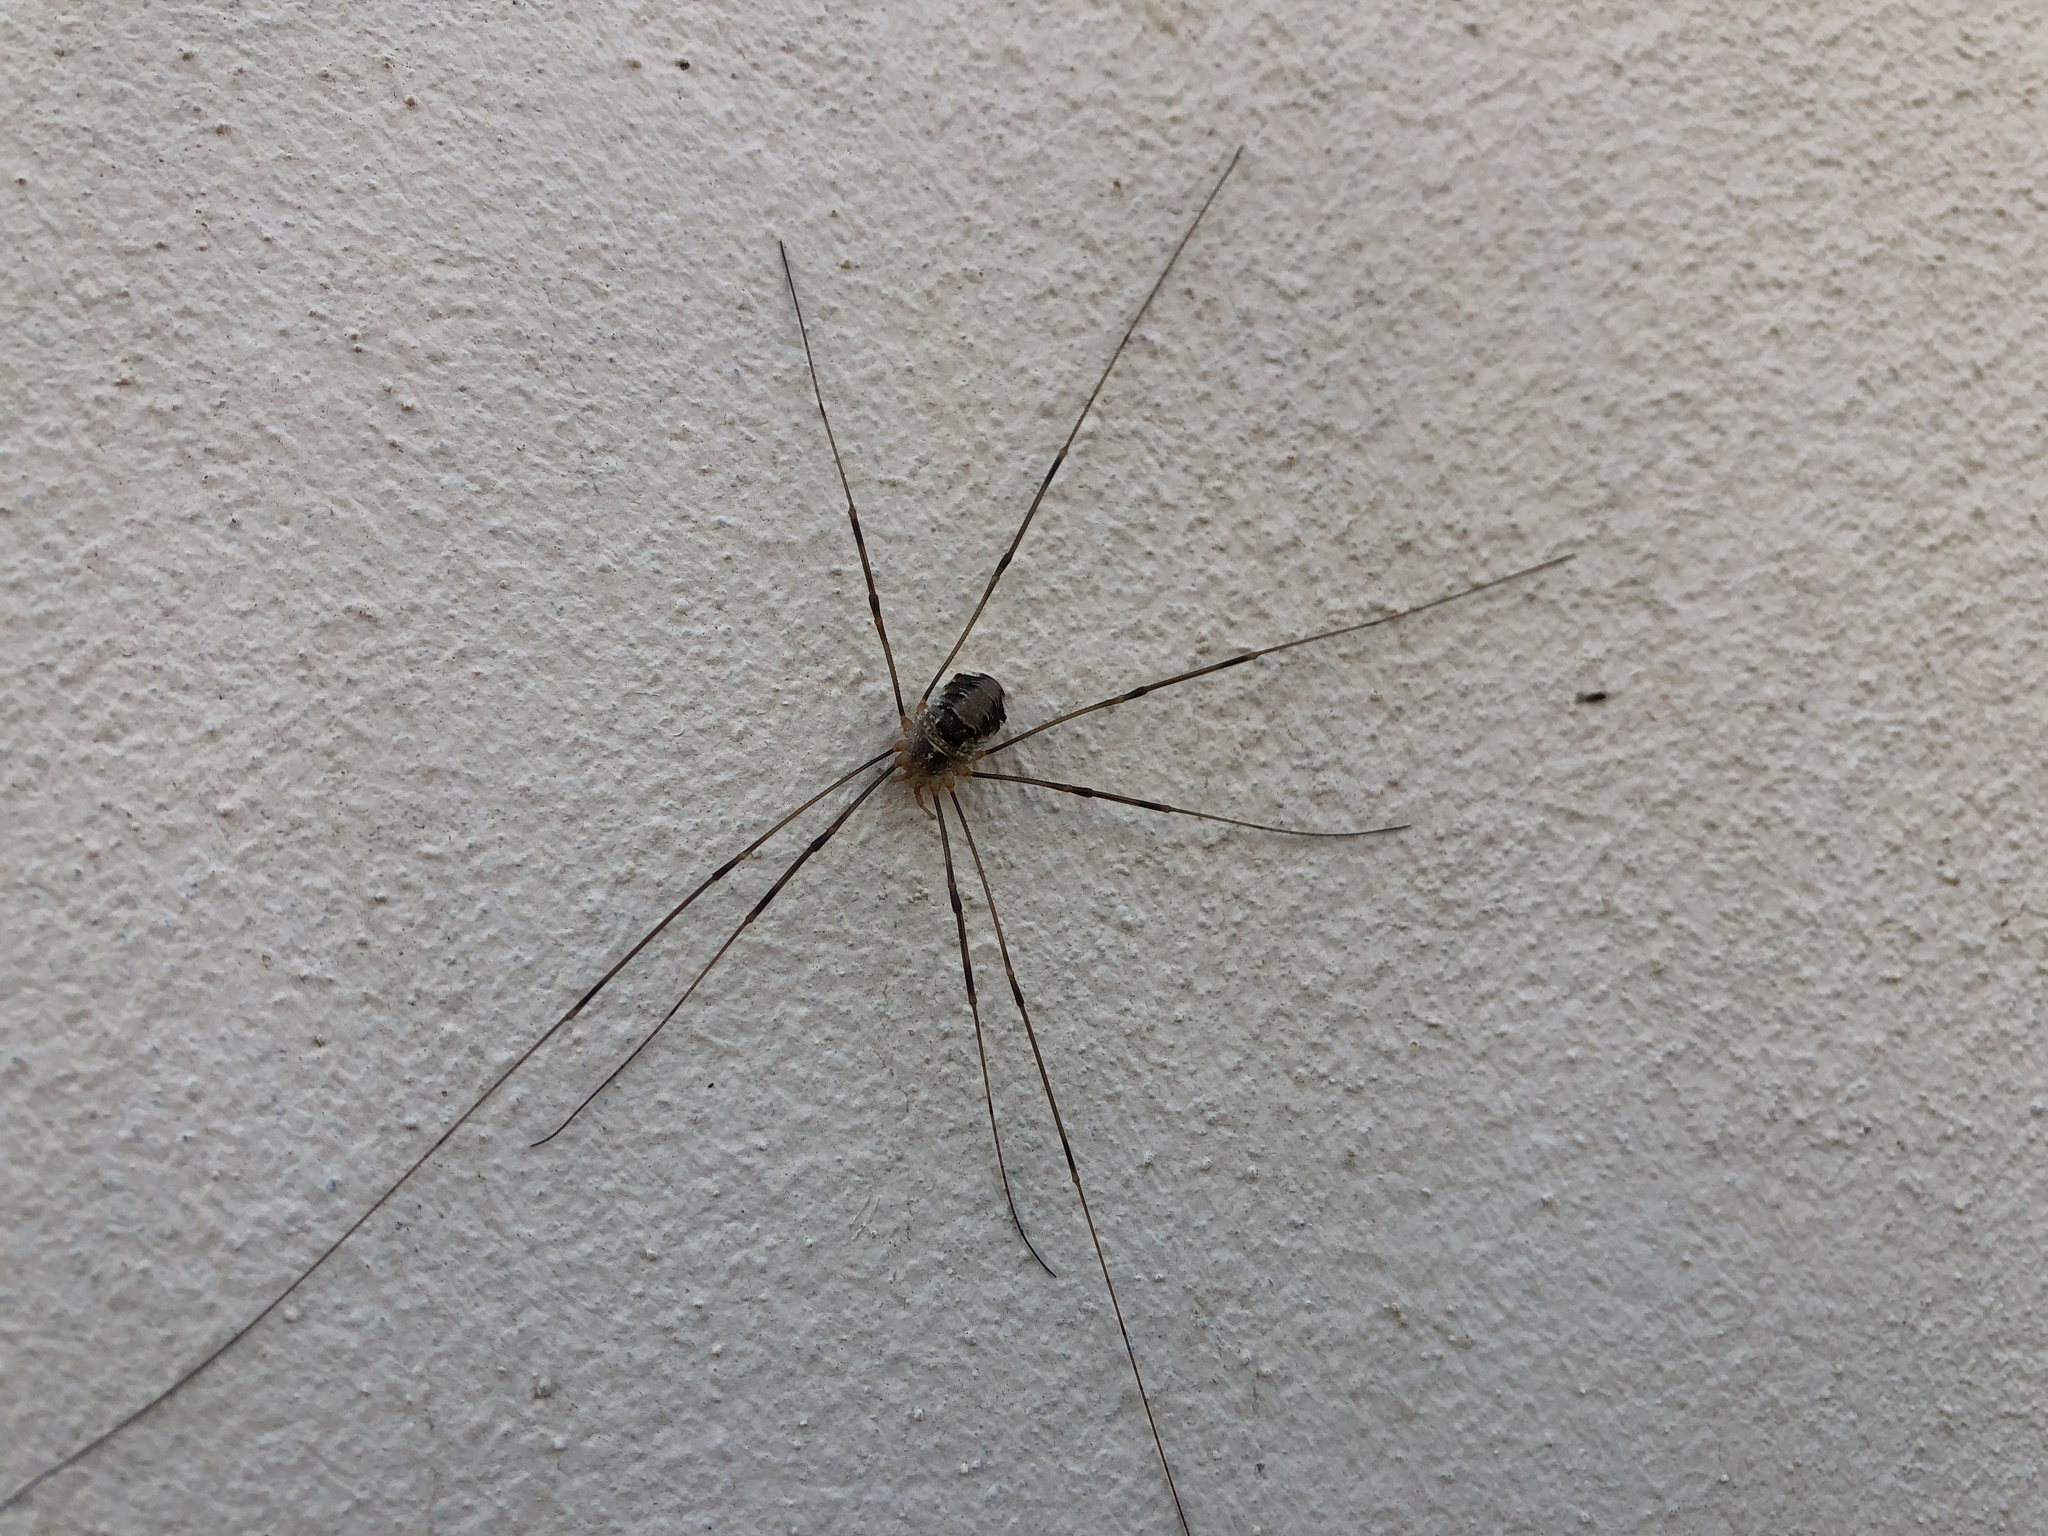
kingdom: Animalia
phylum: Arthropoda
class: Arachnida
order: Opiliones
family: Phalangiidae
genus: Opilio
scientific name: Opilio canestrinii
